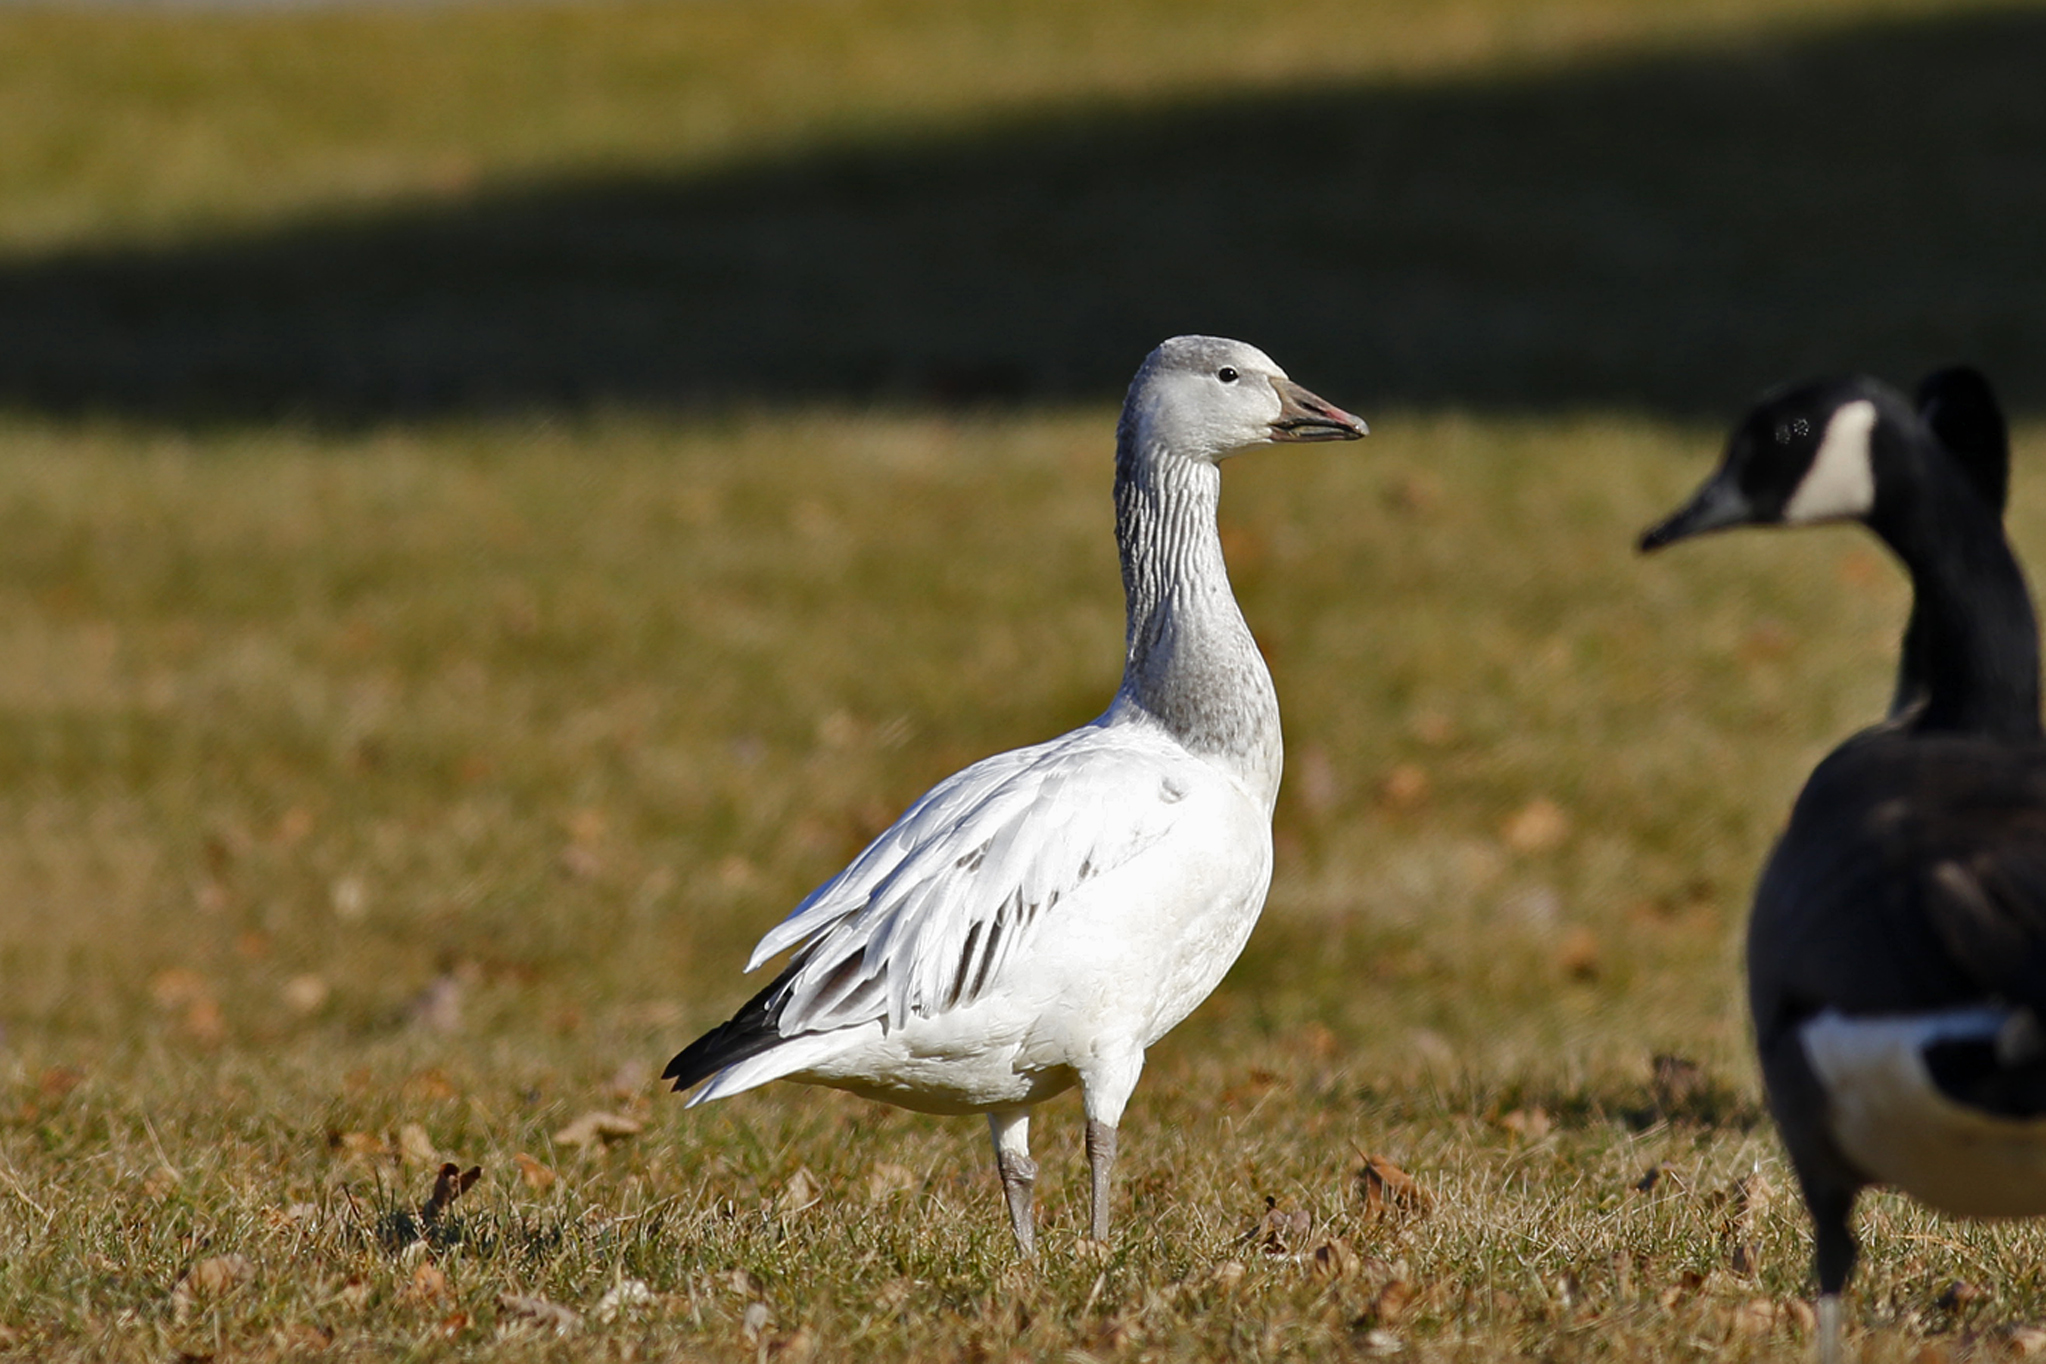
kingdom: Animalia
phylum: Chordata
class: Aves
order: Anseriformes
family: Anatidae
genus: Anser
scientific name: Anser caerulescens
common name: Snow goose
